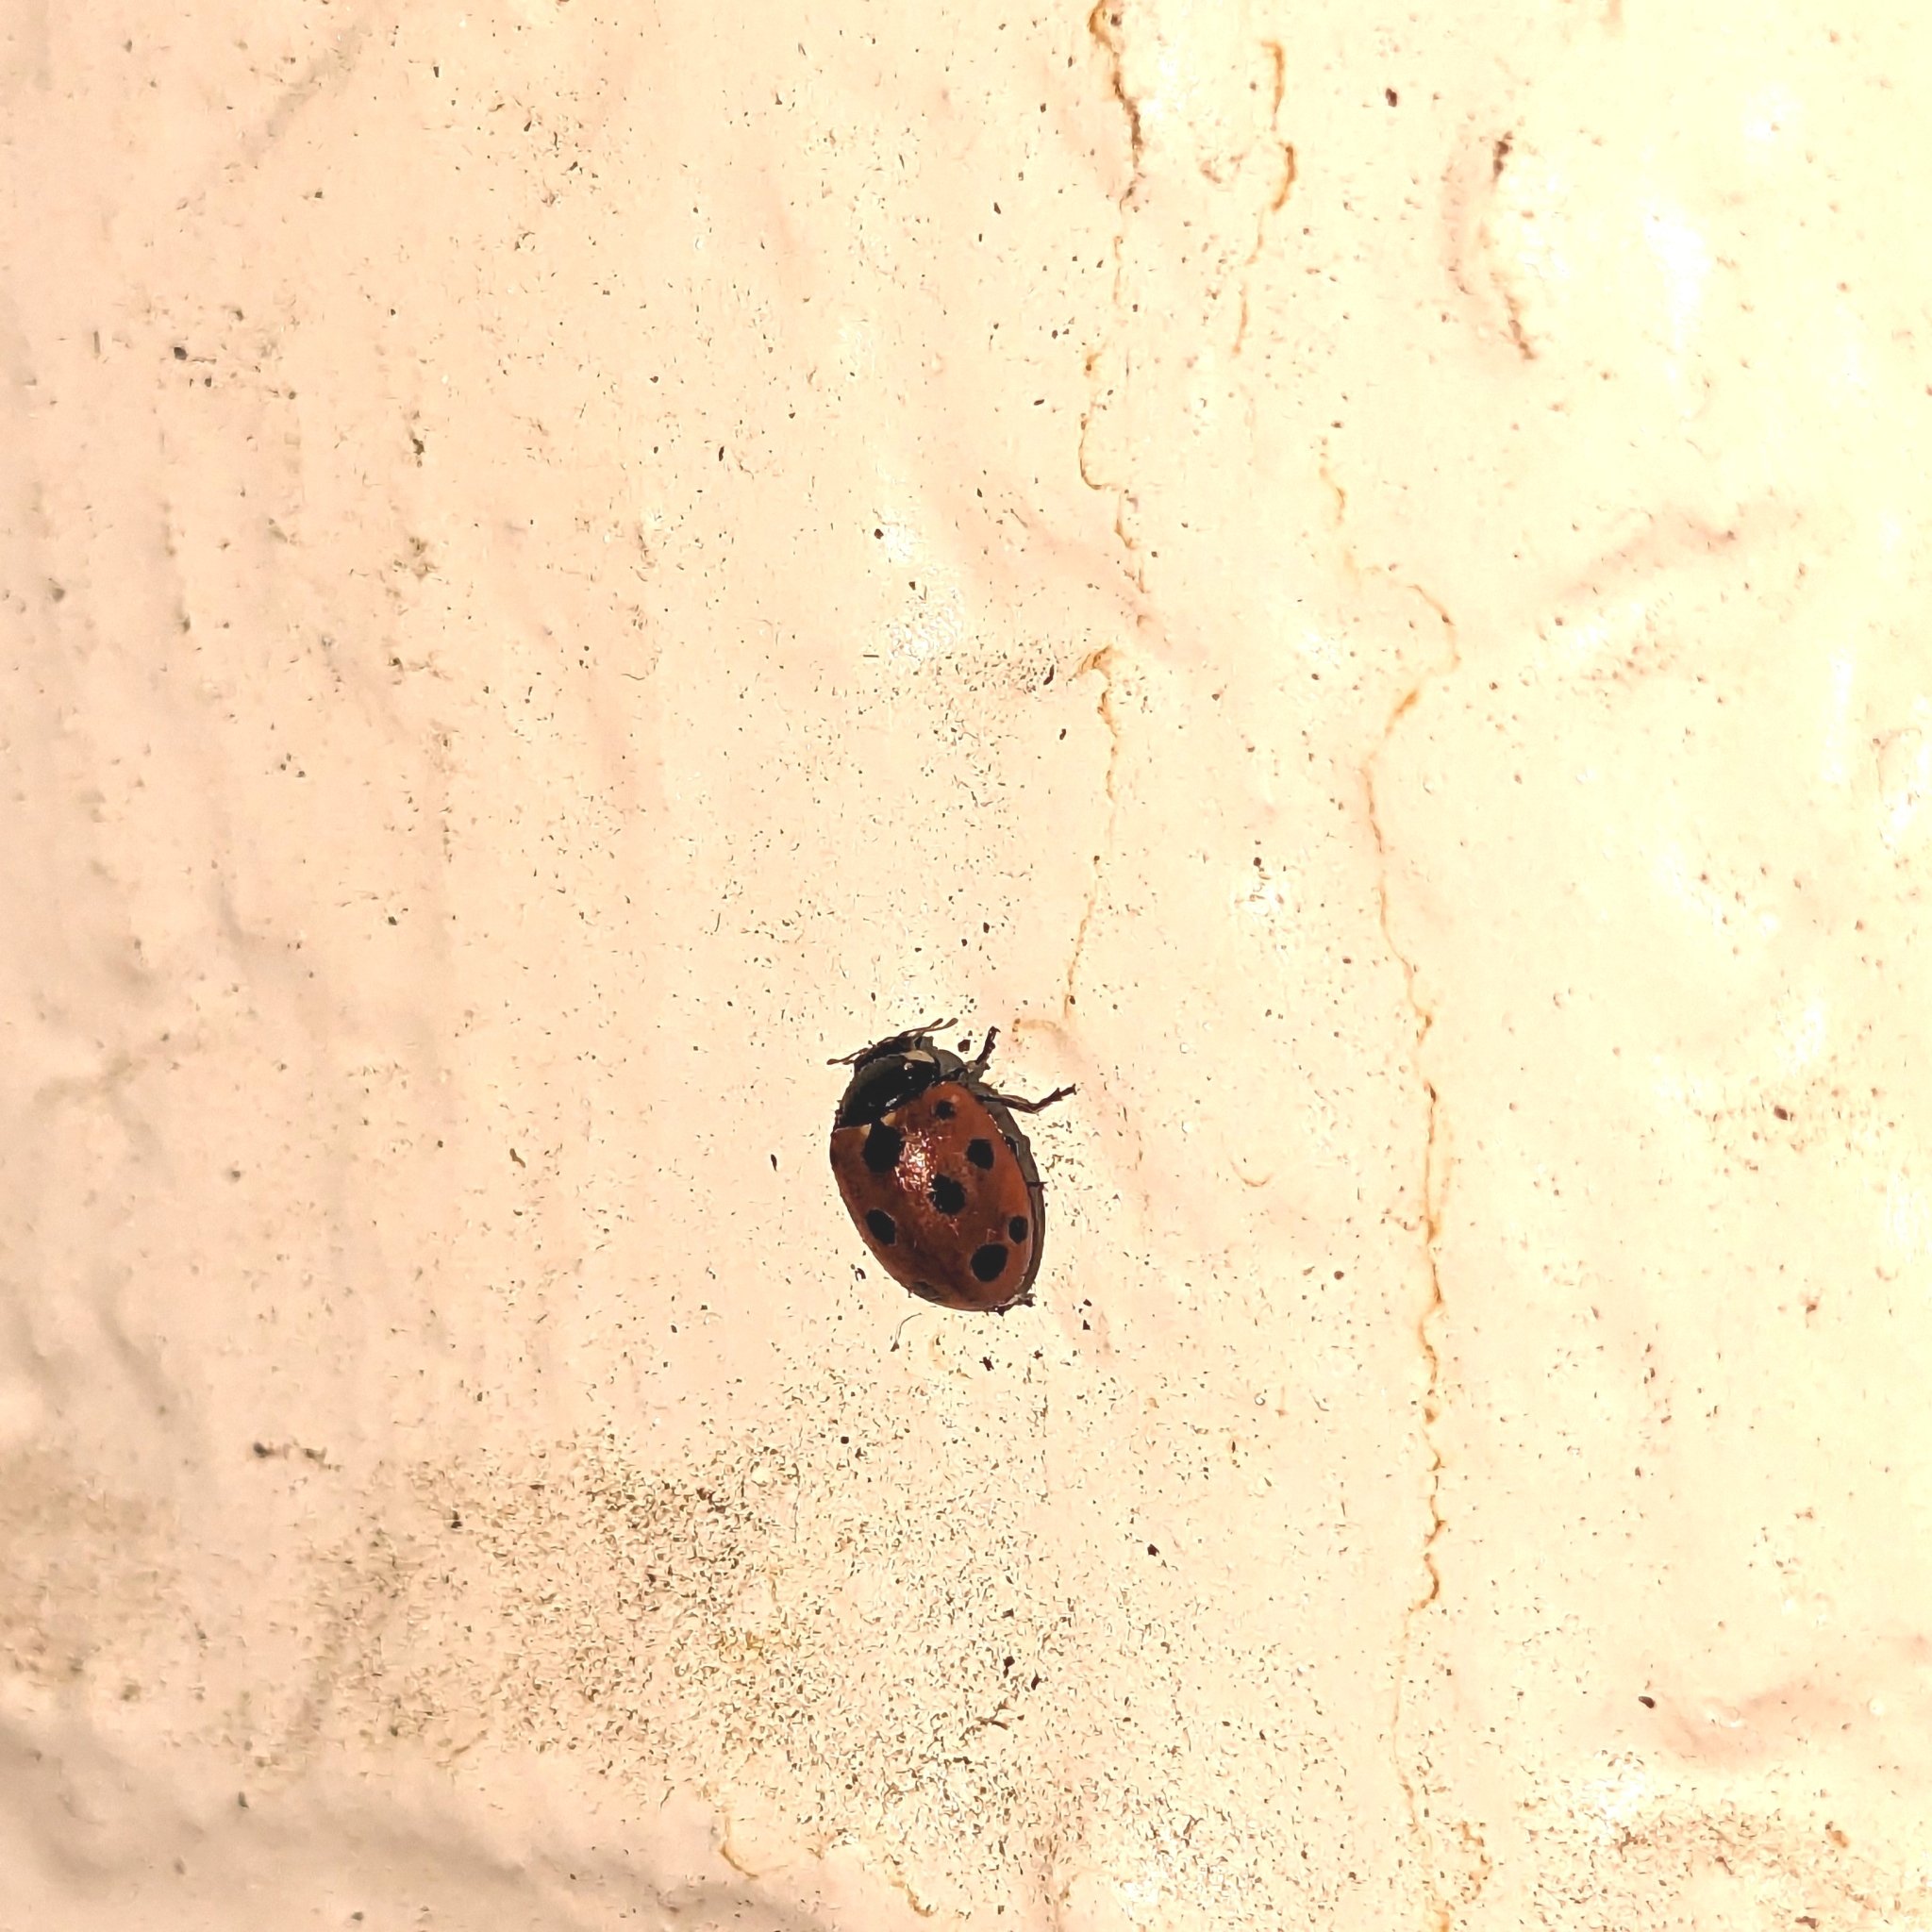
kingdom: Animalia
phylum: Arthropoda
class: Insecta
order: Coleoptera
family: Coccinellidae
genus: Coccinella
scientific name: Coccinella undecimpunctata
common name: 11-spot ladybird
